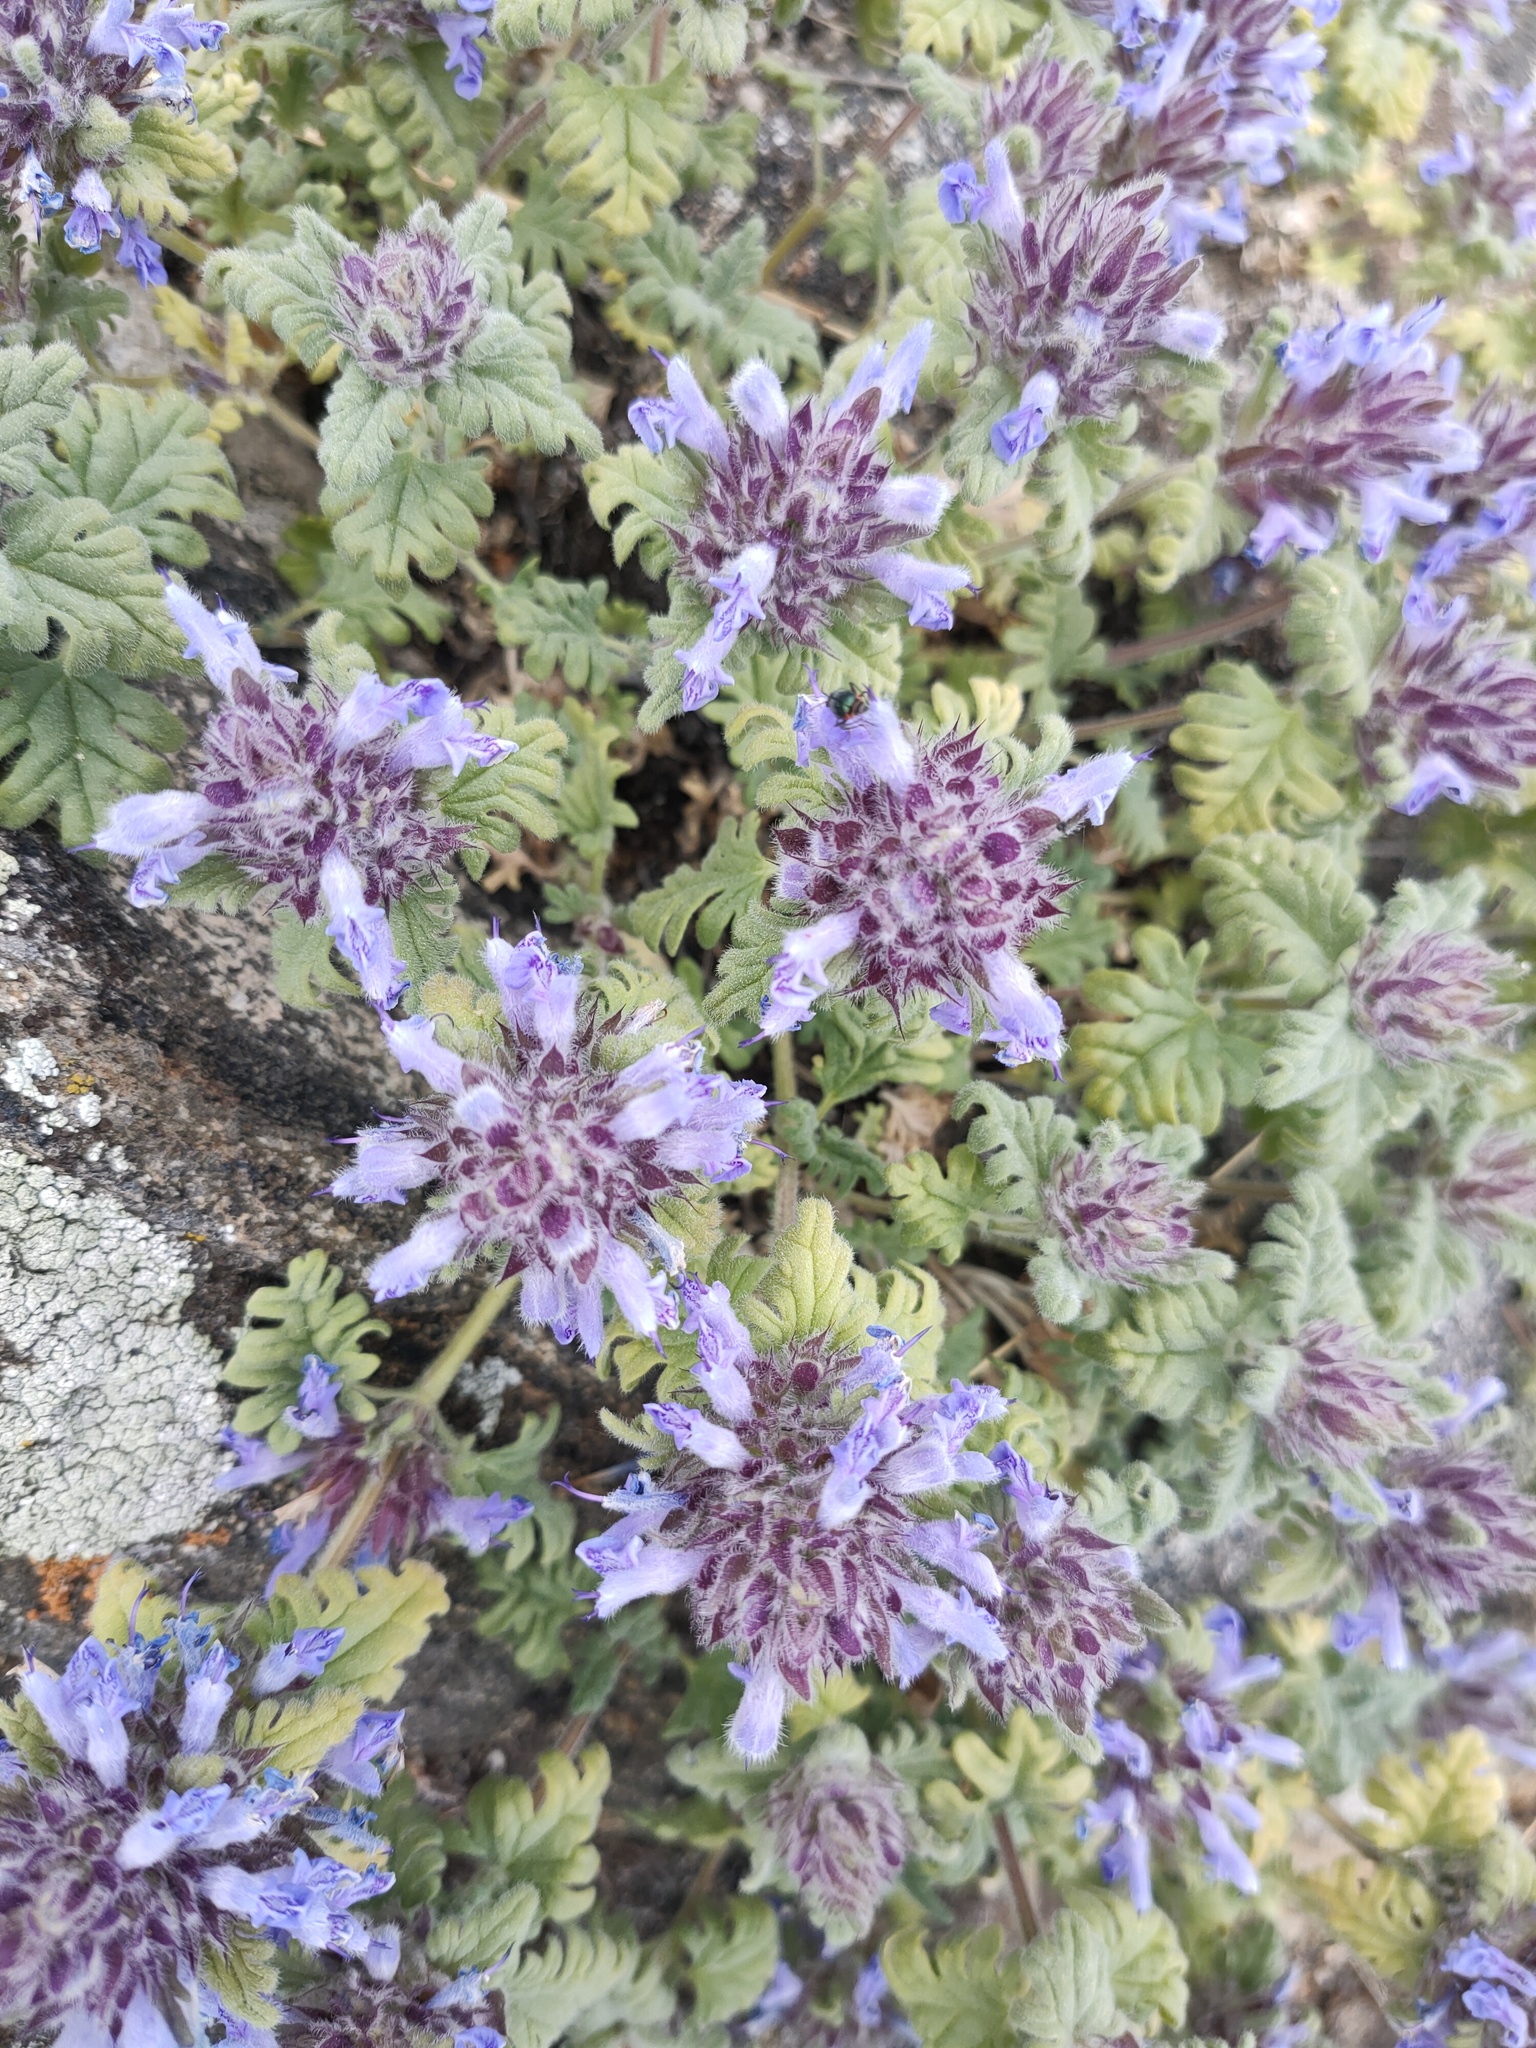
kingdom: Plantae
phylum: Tracheophyta
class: Magnoliopsida
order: Lamiales
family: Lamiaceae
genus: Dracocephalum
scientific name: Dracocephalum pinnatum
